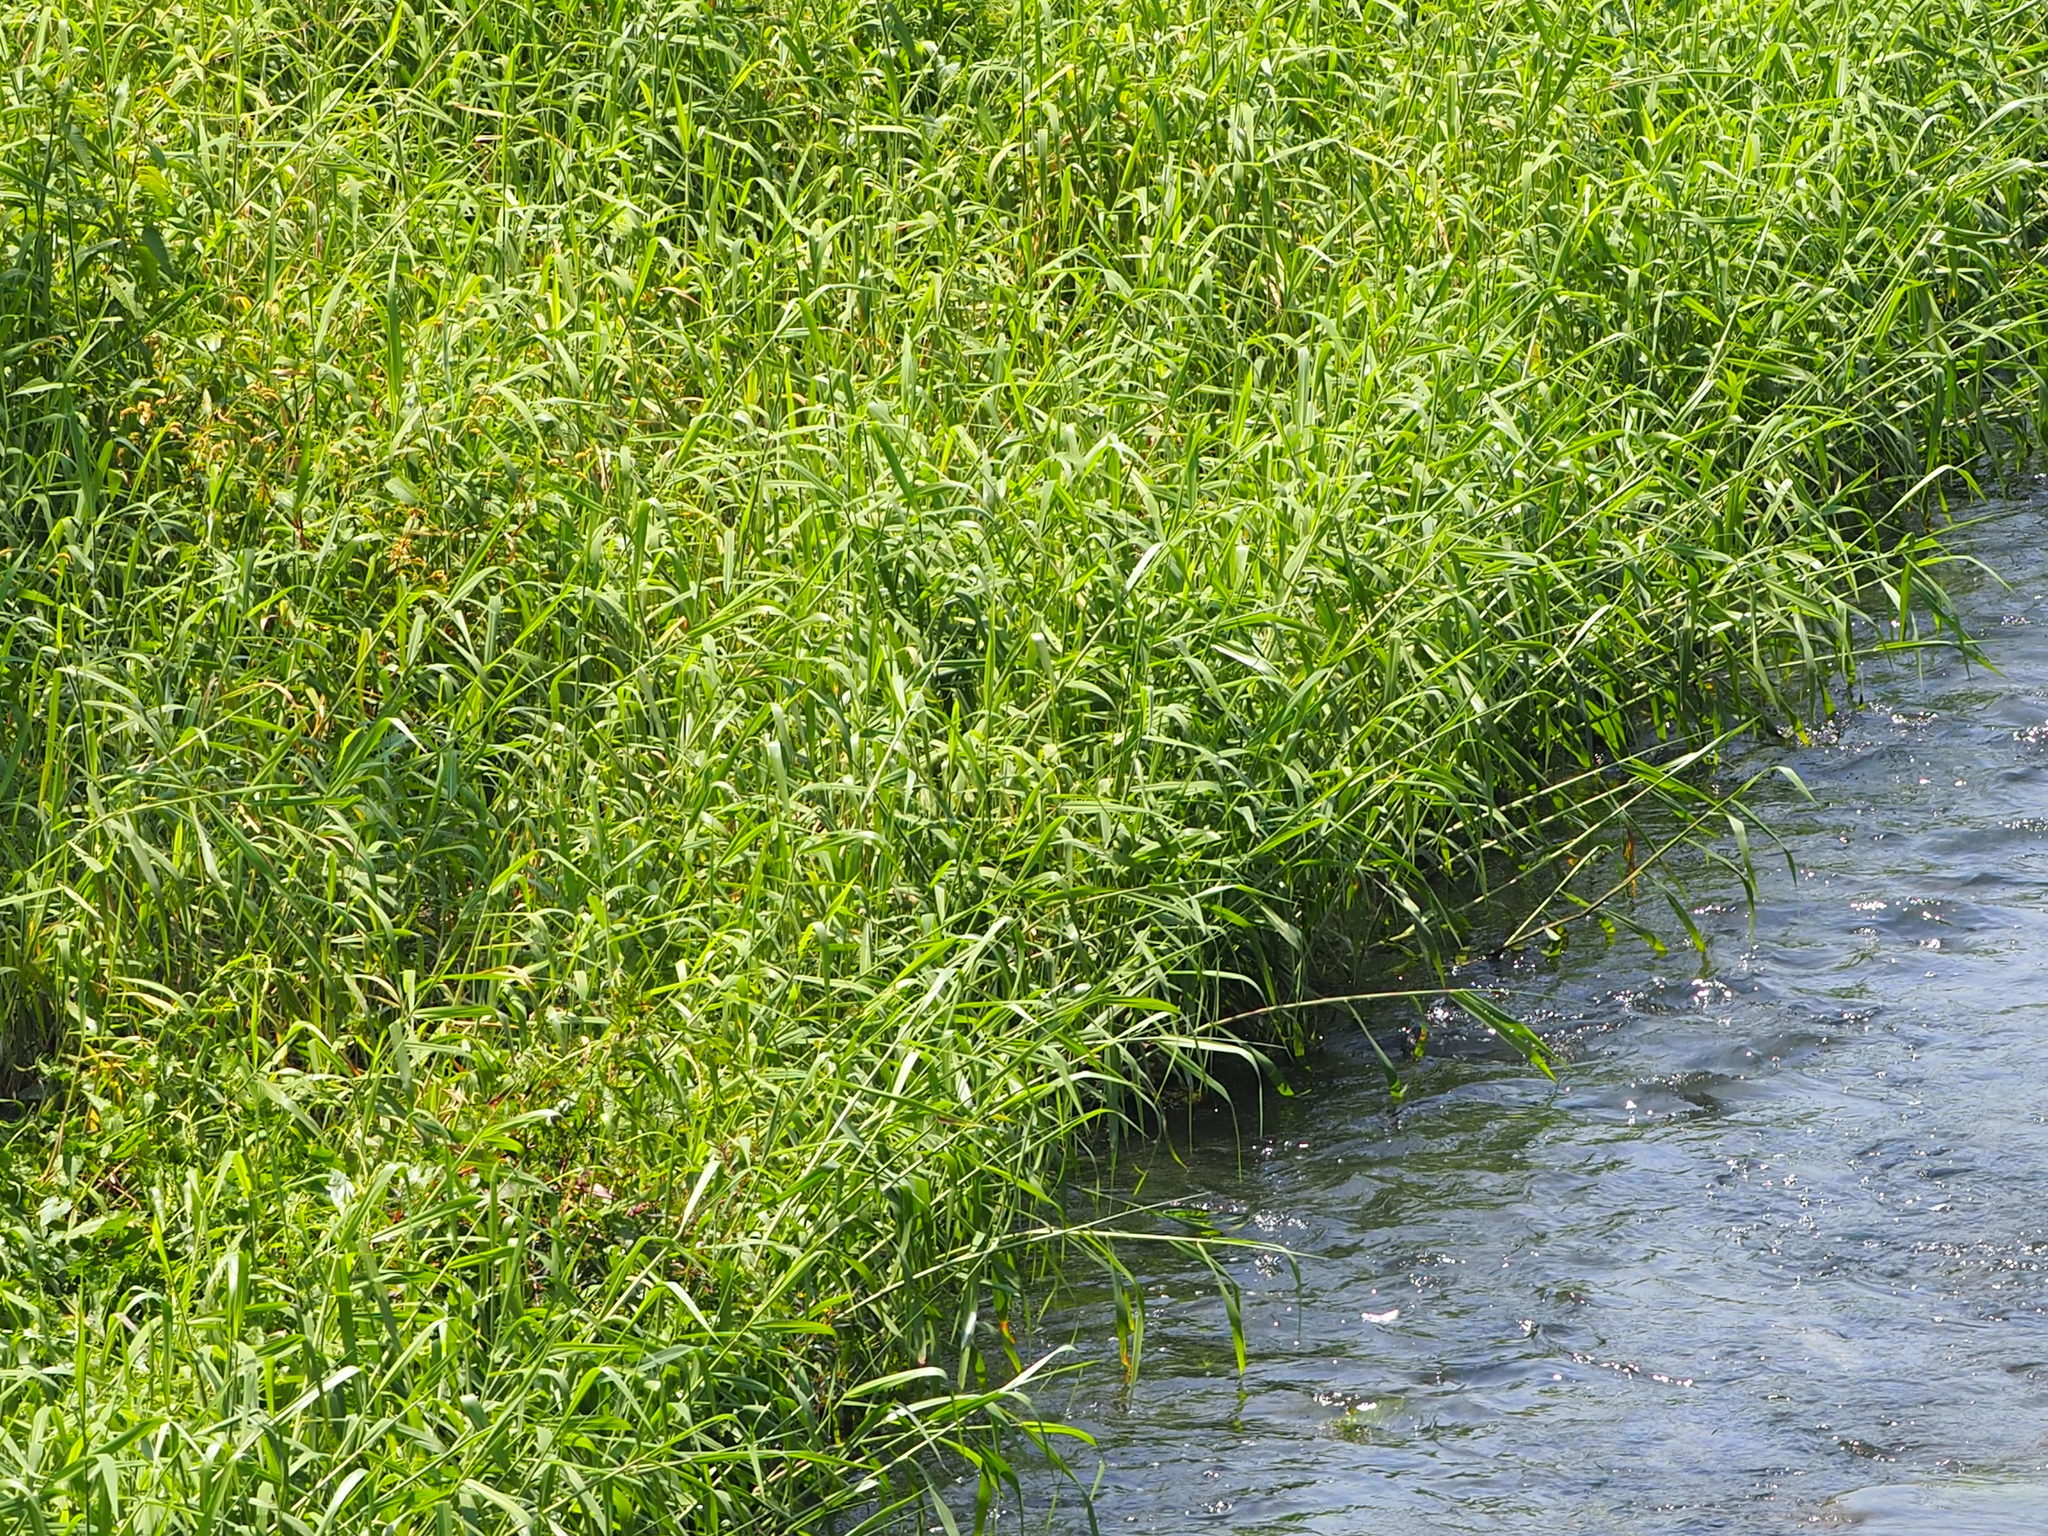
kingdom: Plantae
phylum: Tracheophyta
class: Liliopsida
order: Poales
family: Poaceae
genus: Urochloa
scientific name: Urochloa mutica
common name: Para grass
